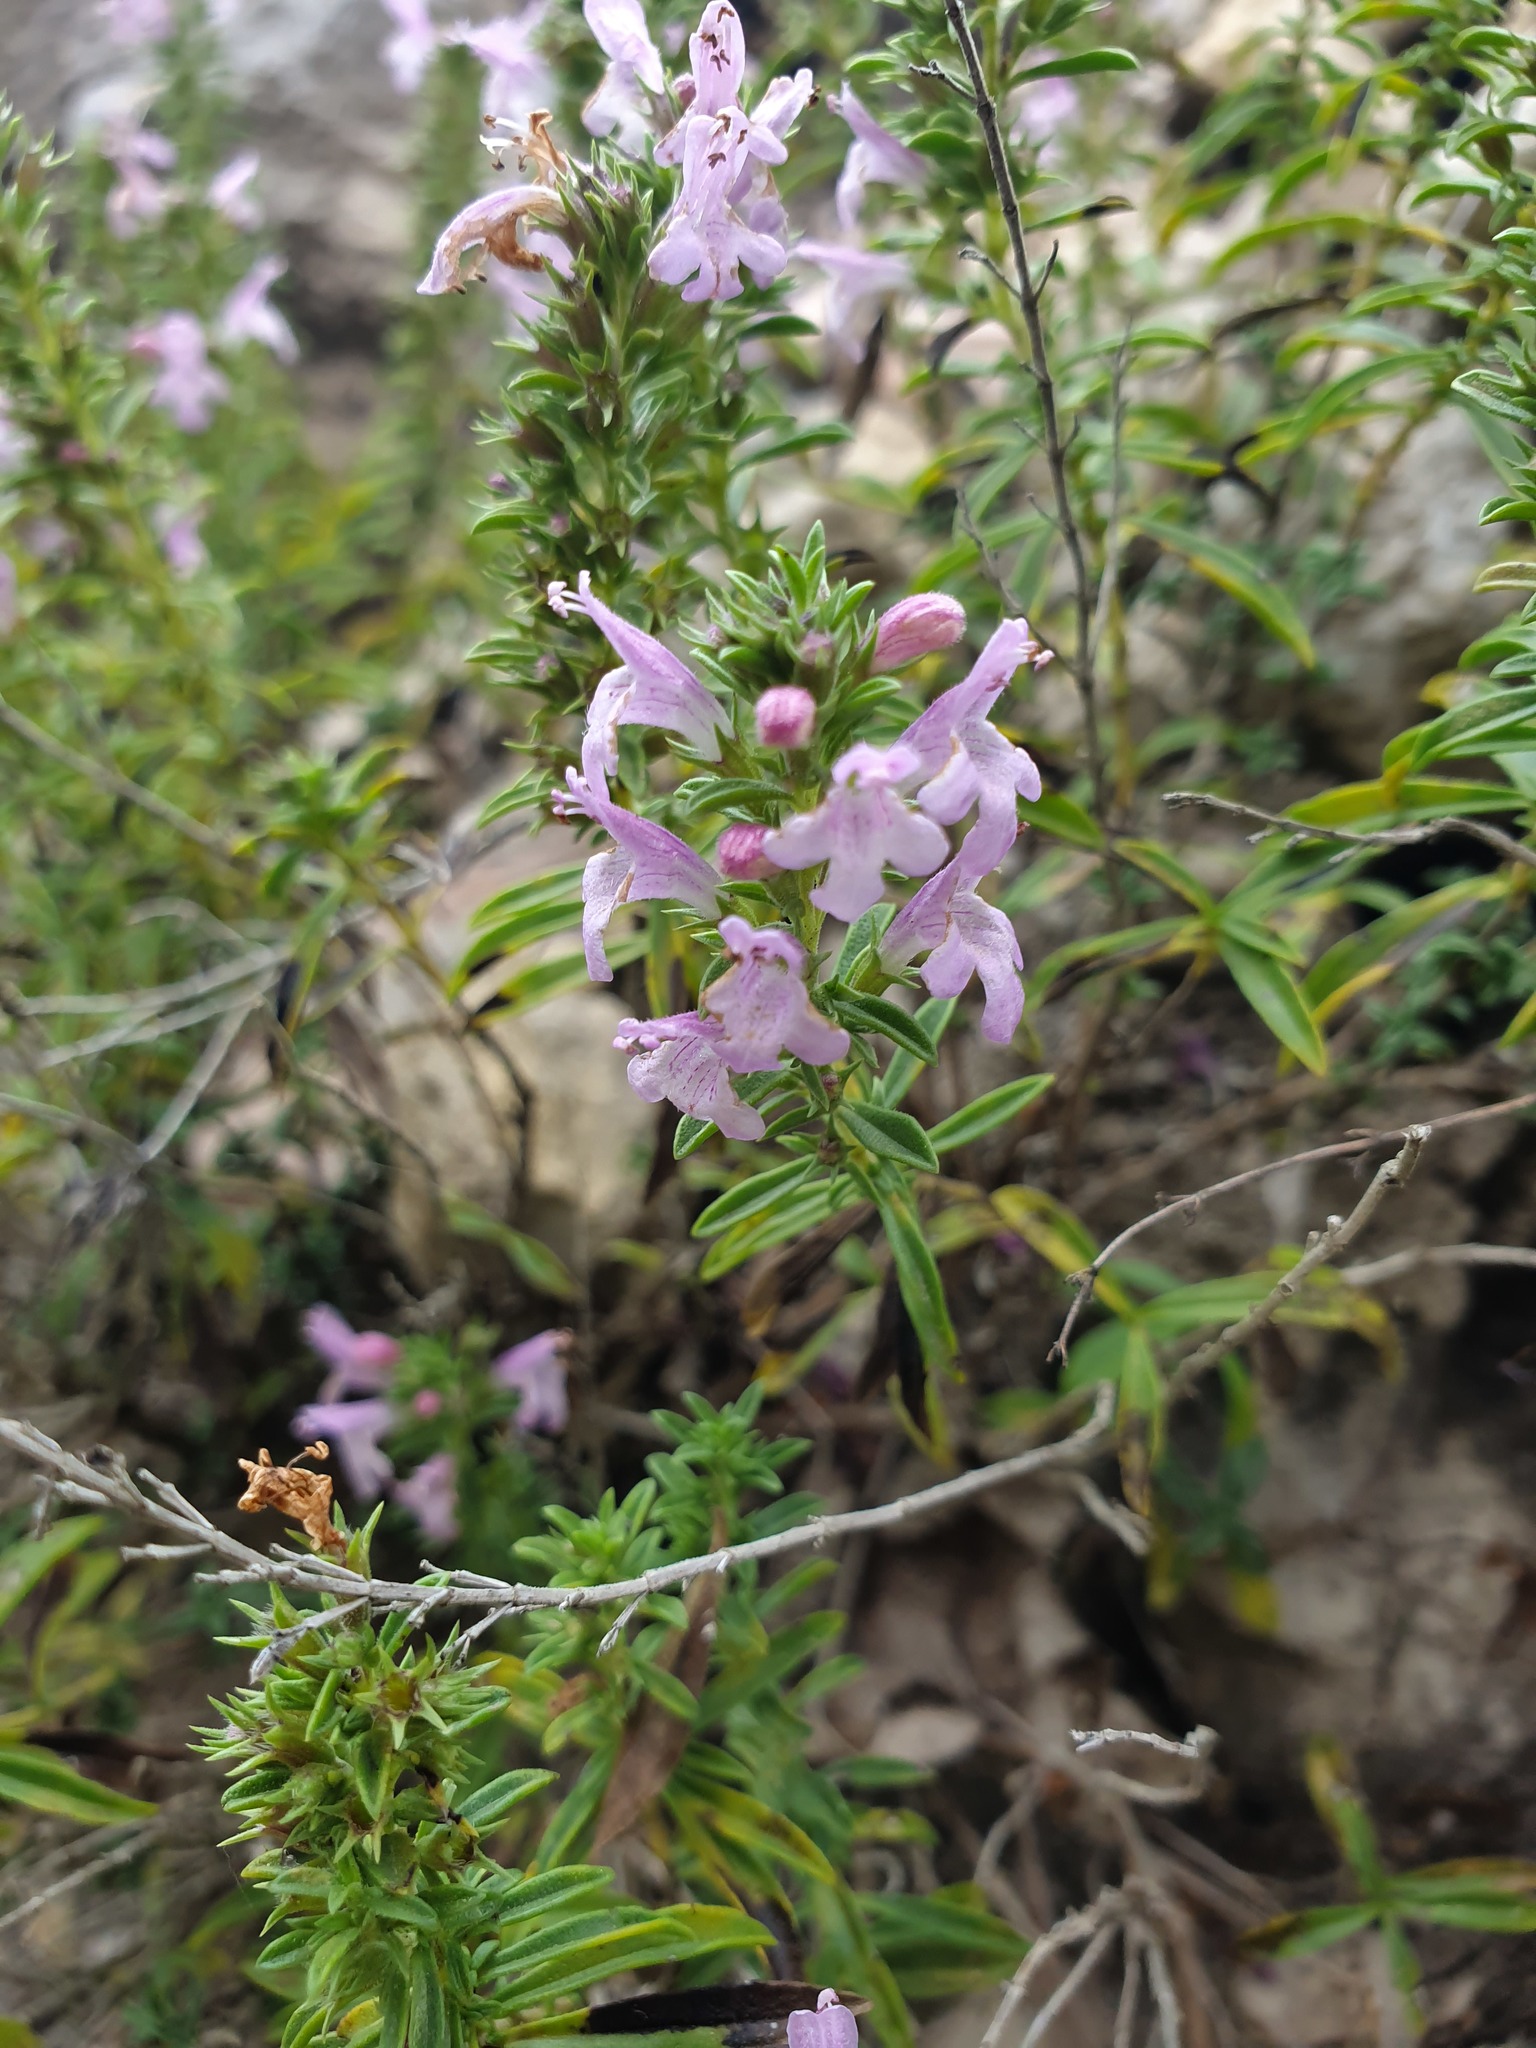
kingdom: Plantae
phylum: Tracheophyta
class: Magnoliopsida
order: Lamiales
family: Lamiaceae
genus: Satureja
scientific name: Satureja subspicata
